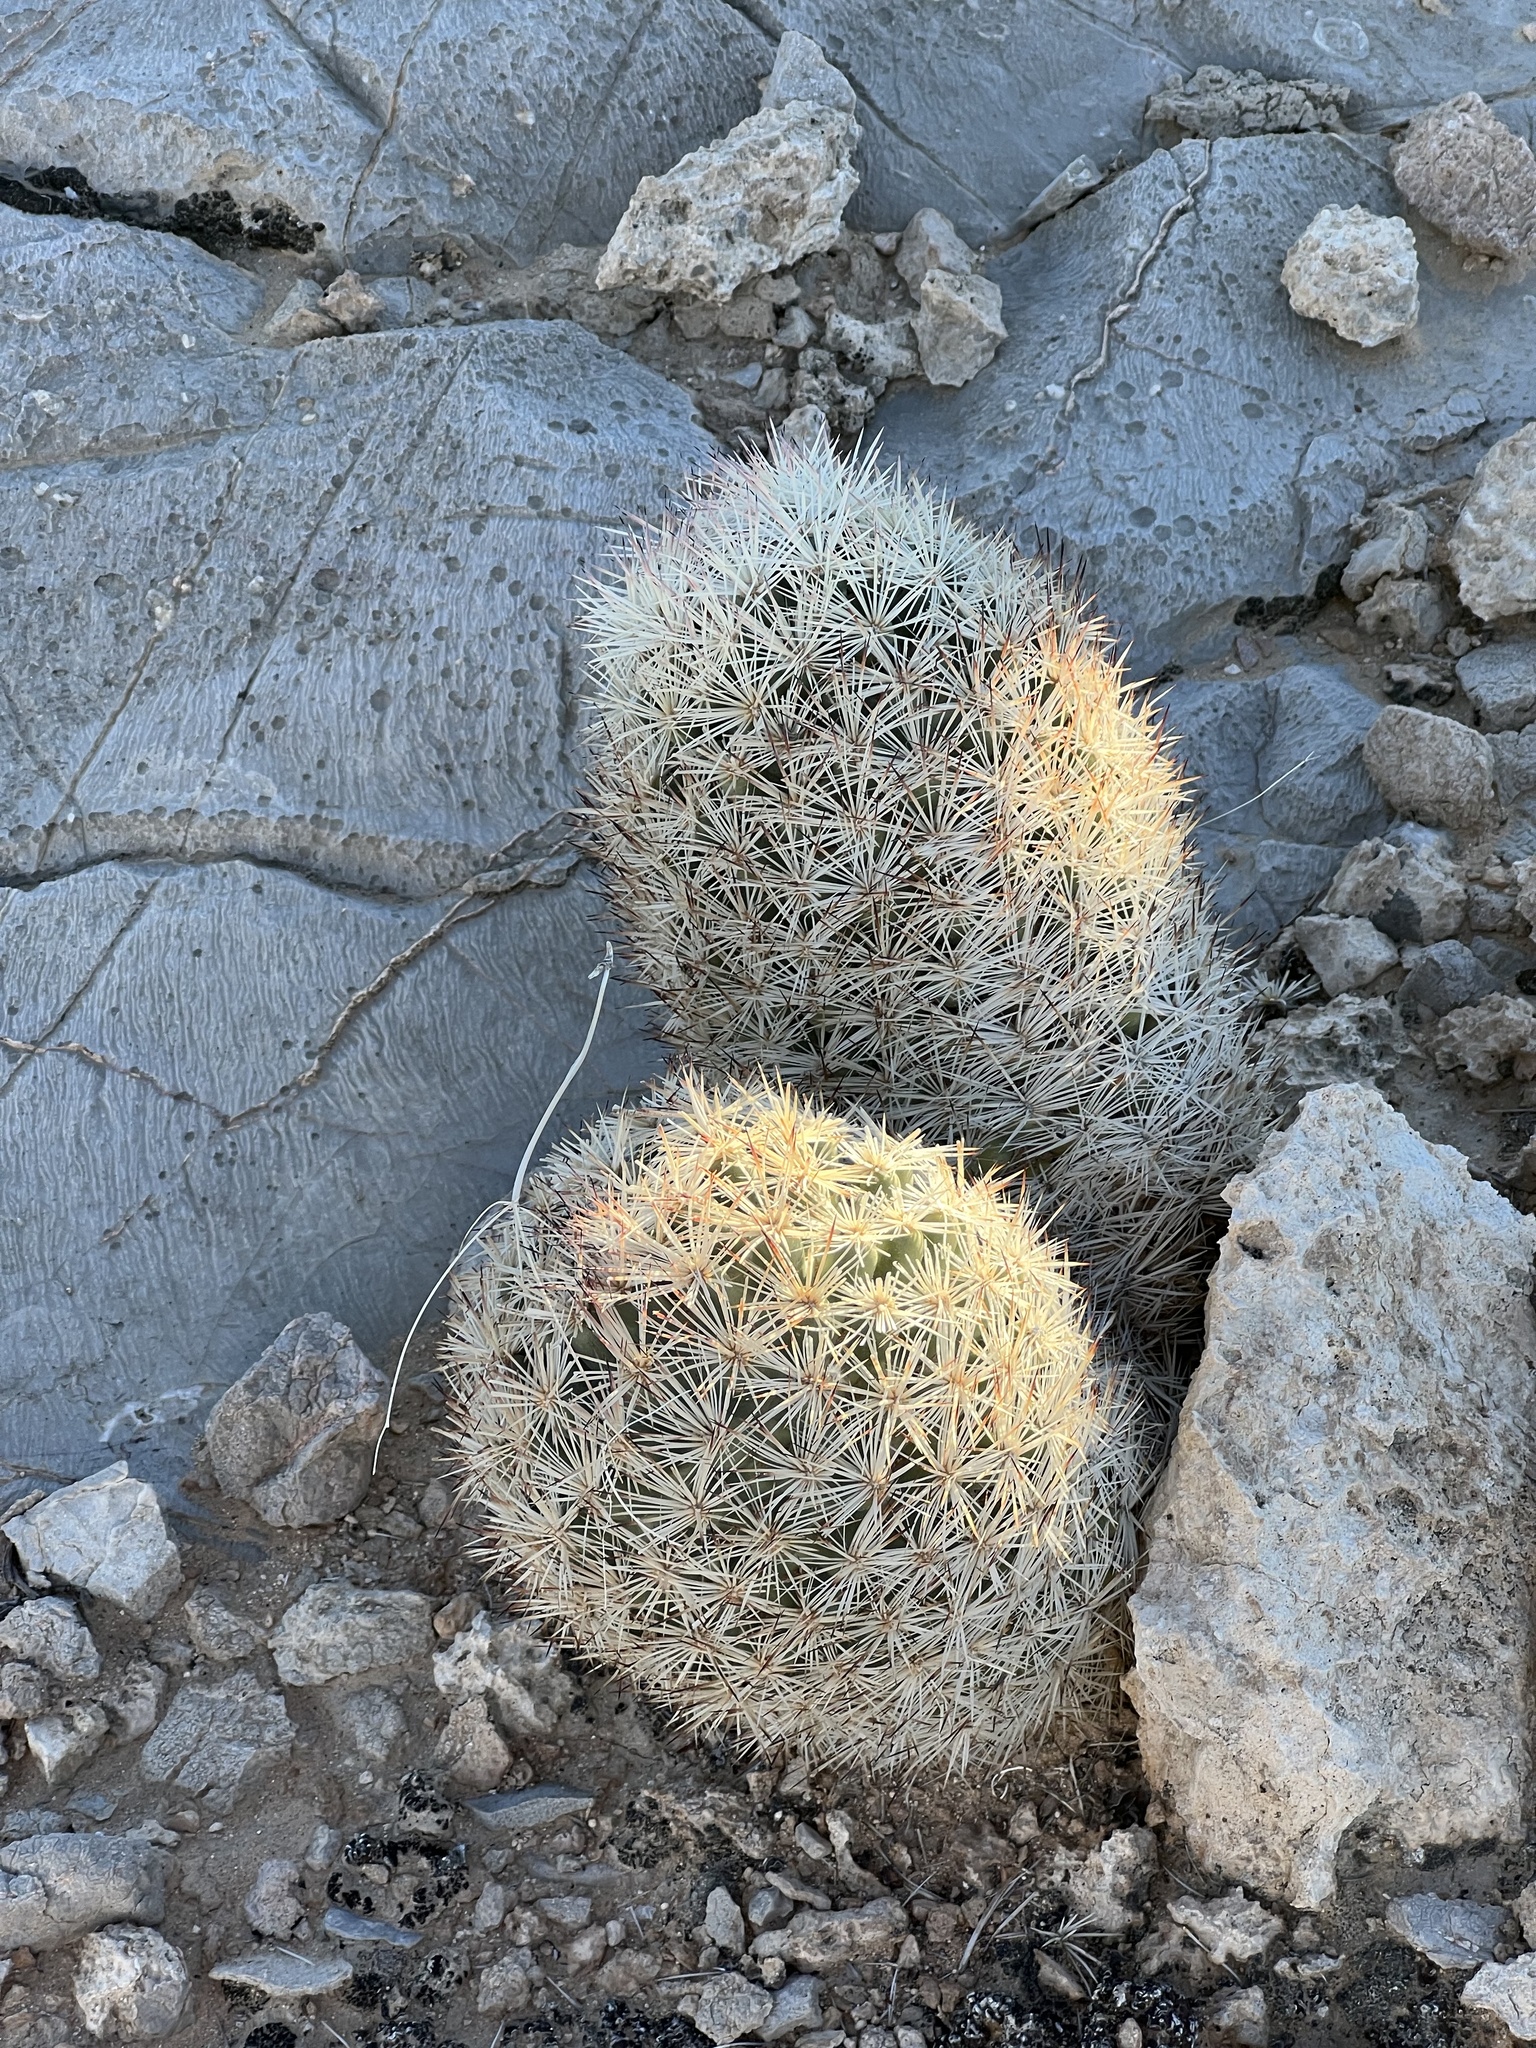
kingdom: Plantae
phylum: Tracheophyta
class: Magnoliopsida
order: Caryophyllales
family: Cactaceae
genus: Pelecyphora
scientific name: Pelecyphora dasyacantha
